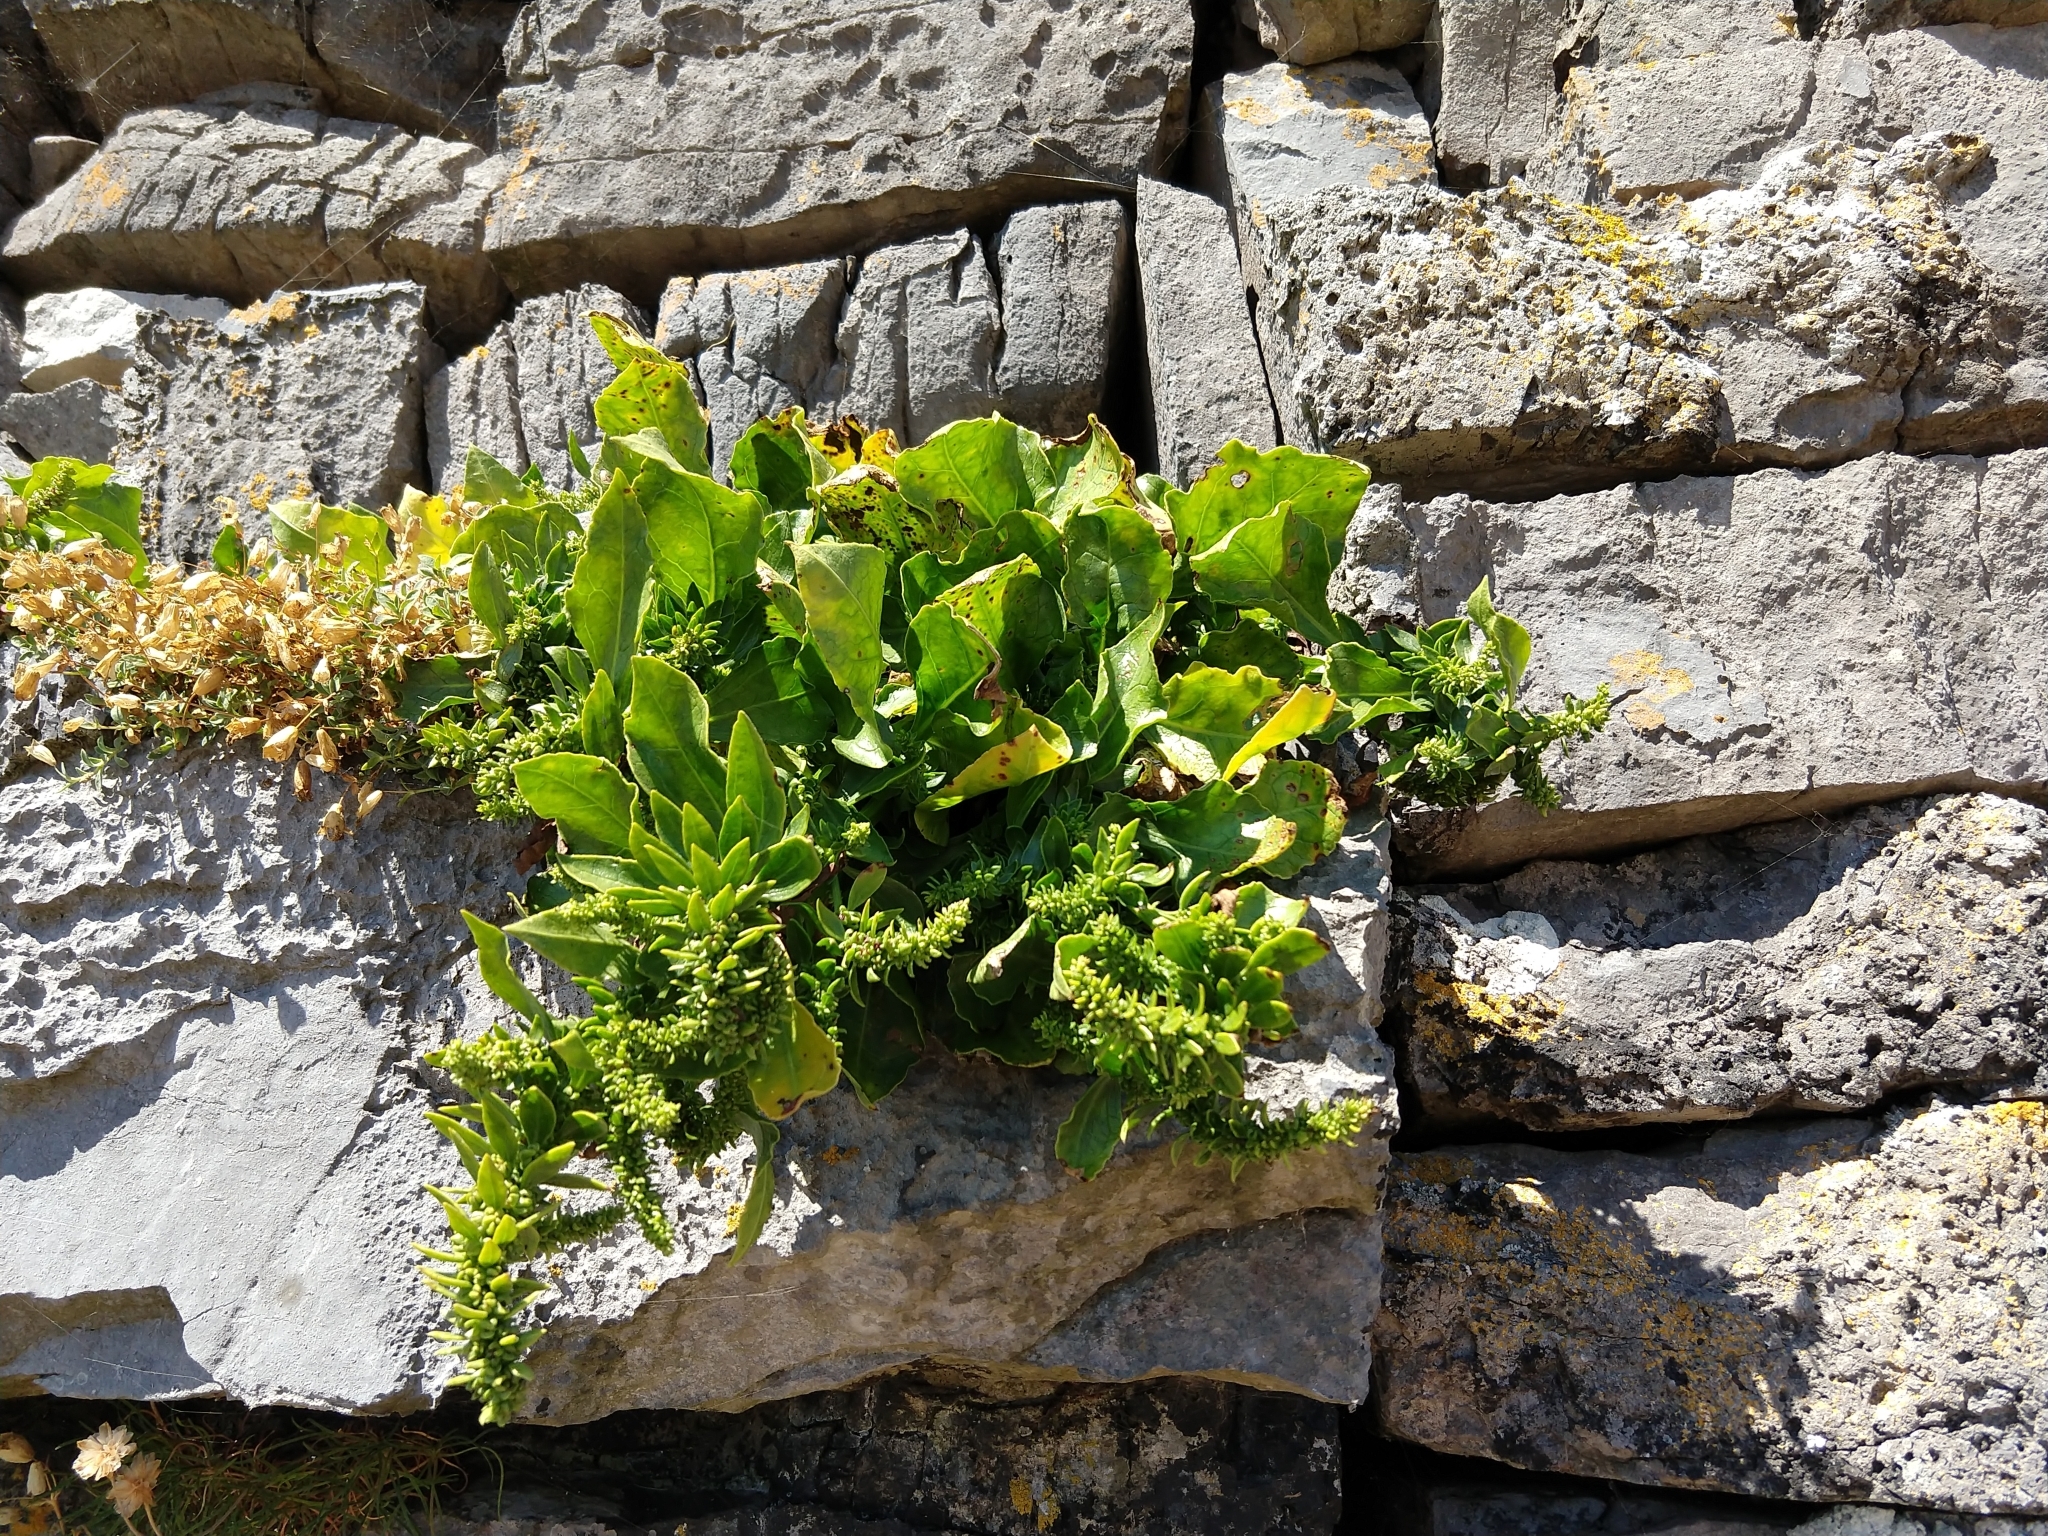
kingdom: Plantae
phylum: Tracheophyta
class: Magnoliopsida
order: Caryophyllales
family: Amaranthaceae
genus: Beta
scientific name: Beta vulgaris
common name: Beet
